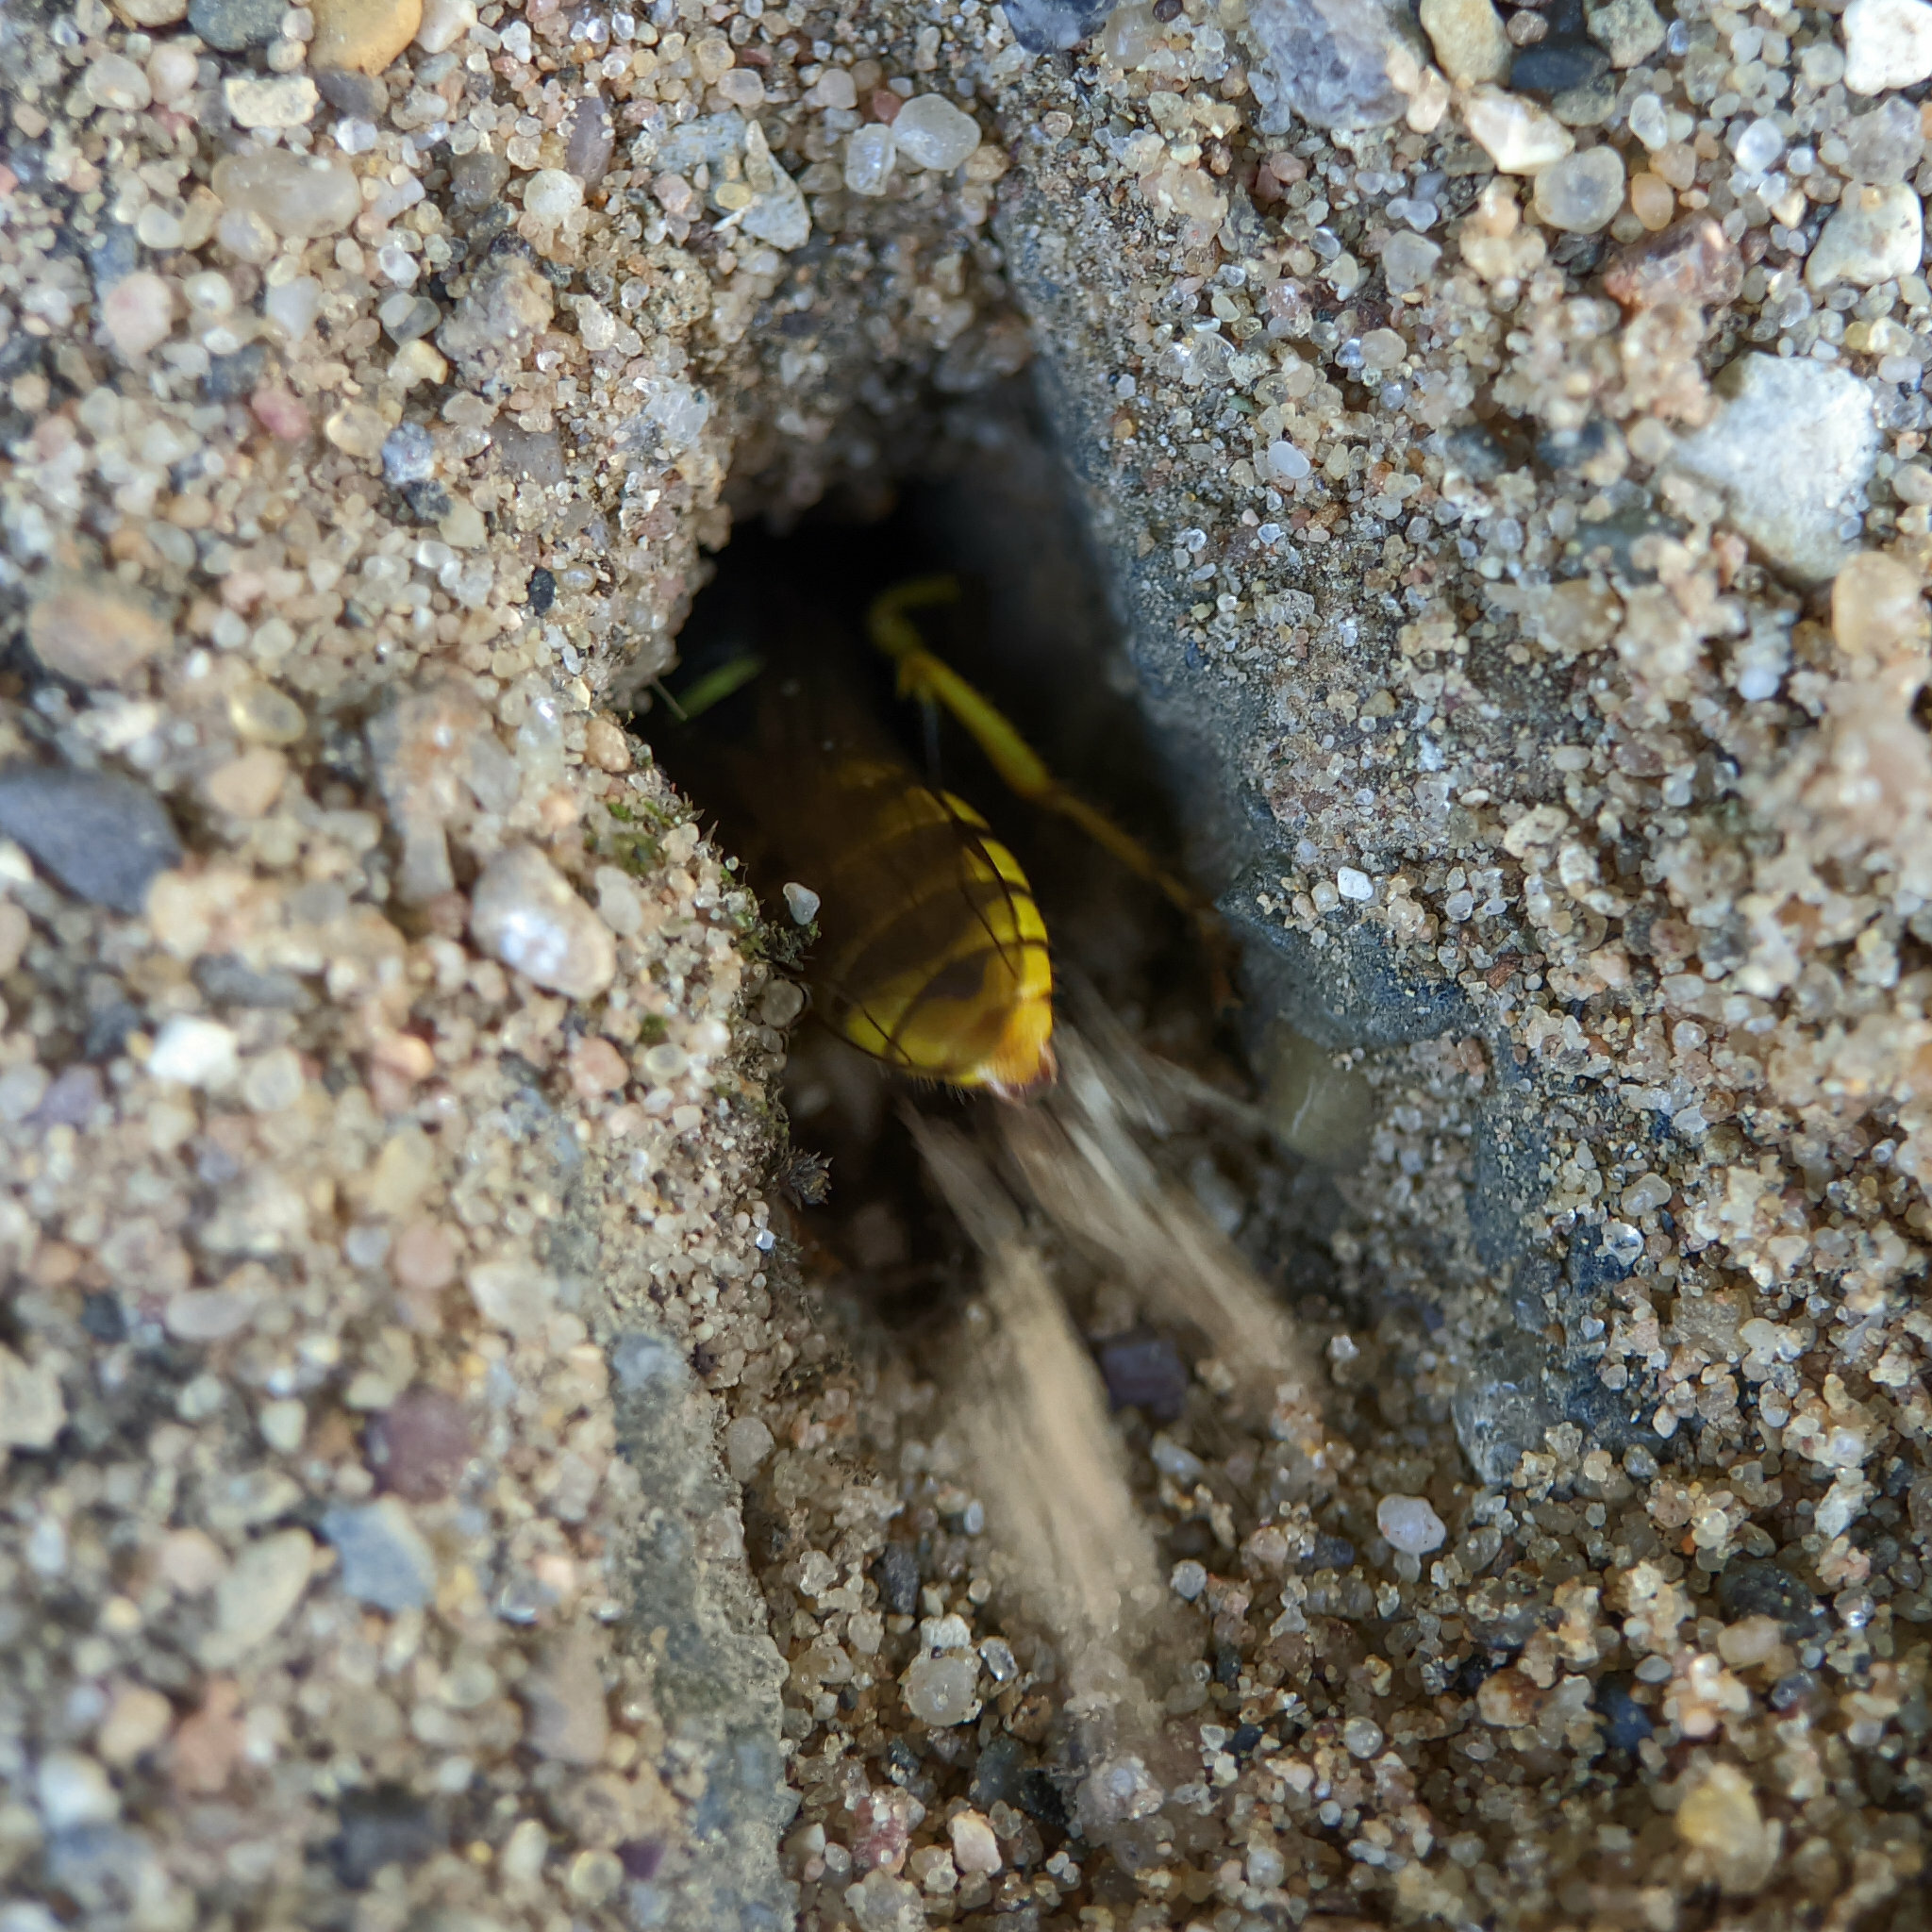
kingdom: Animalia
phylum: Arthropoda
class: Insecta
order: Hymenoptera
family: Crabronidae
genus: Philanthus
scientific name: Philanthus triangulum
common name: Bee wolf
